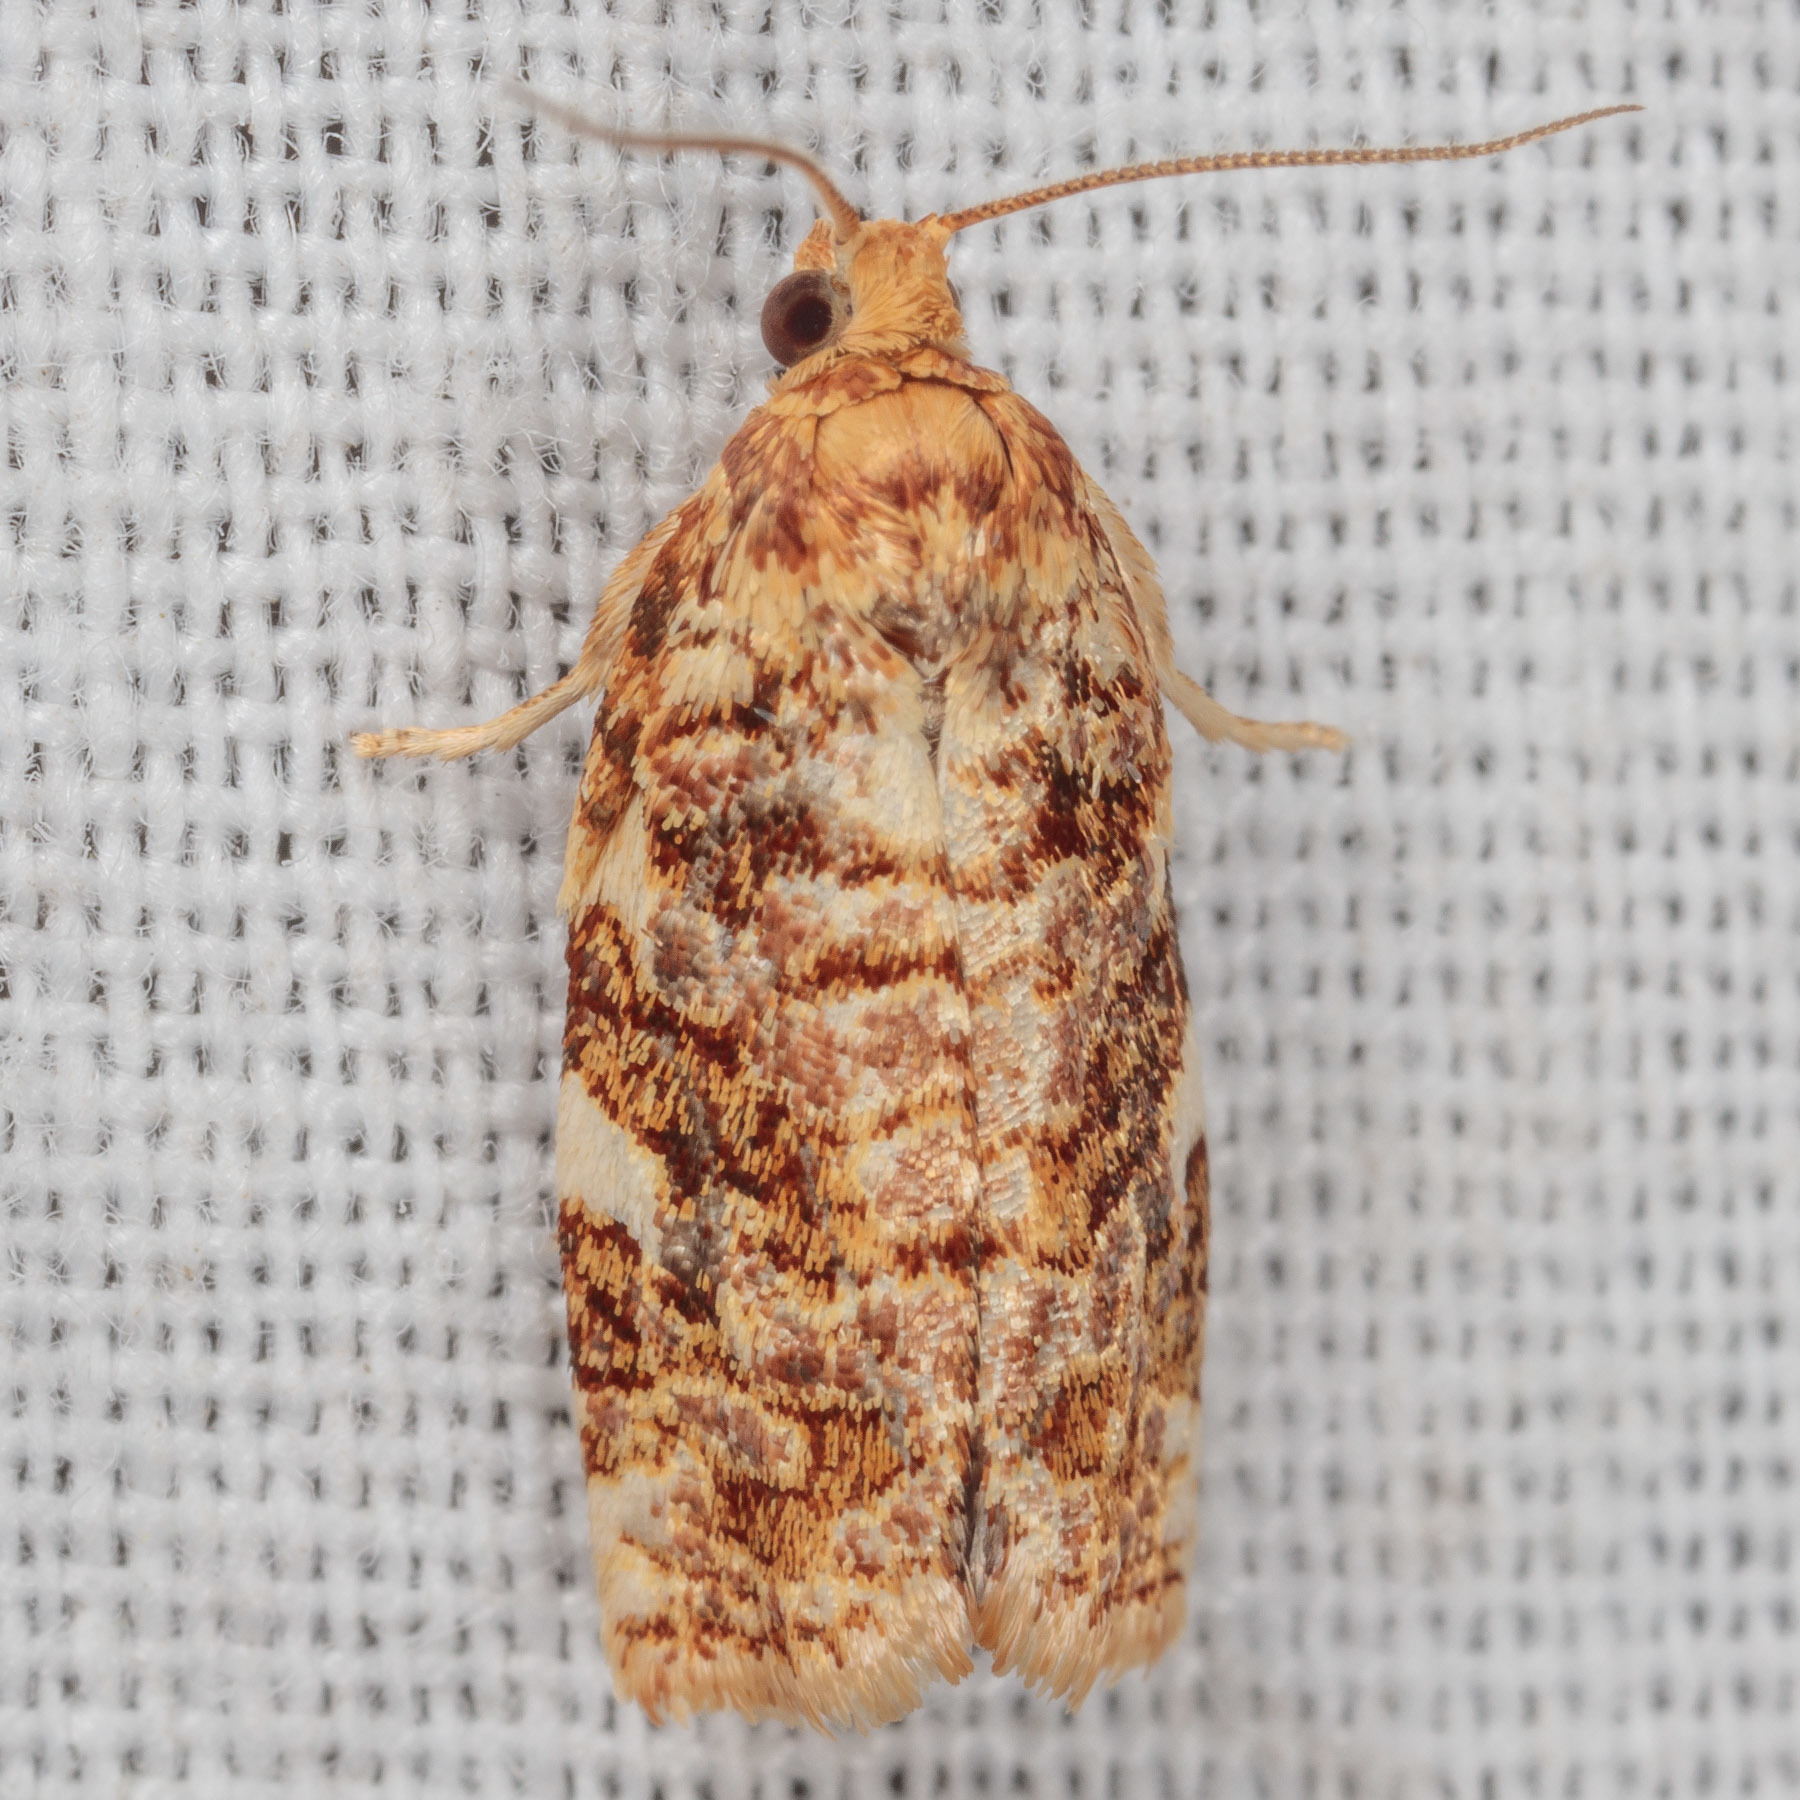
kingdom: Animalia
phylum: Arthropoda
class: Insecta
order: Lepidoptera
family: Tortricidae
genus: Archips
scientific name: Archips argyrospila
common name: Fruit-tree leafroller moth
